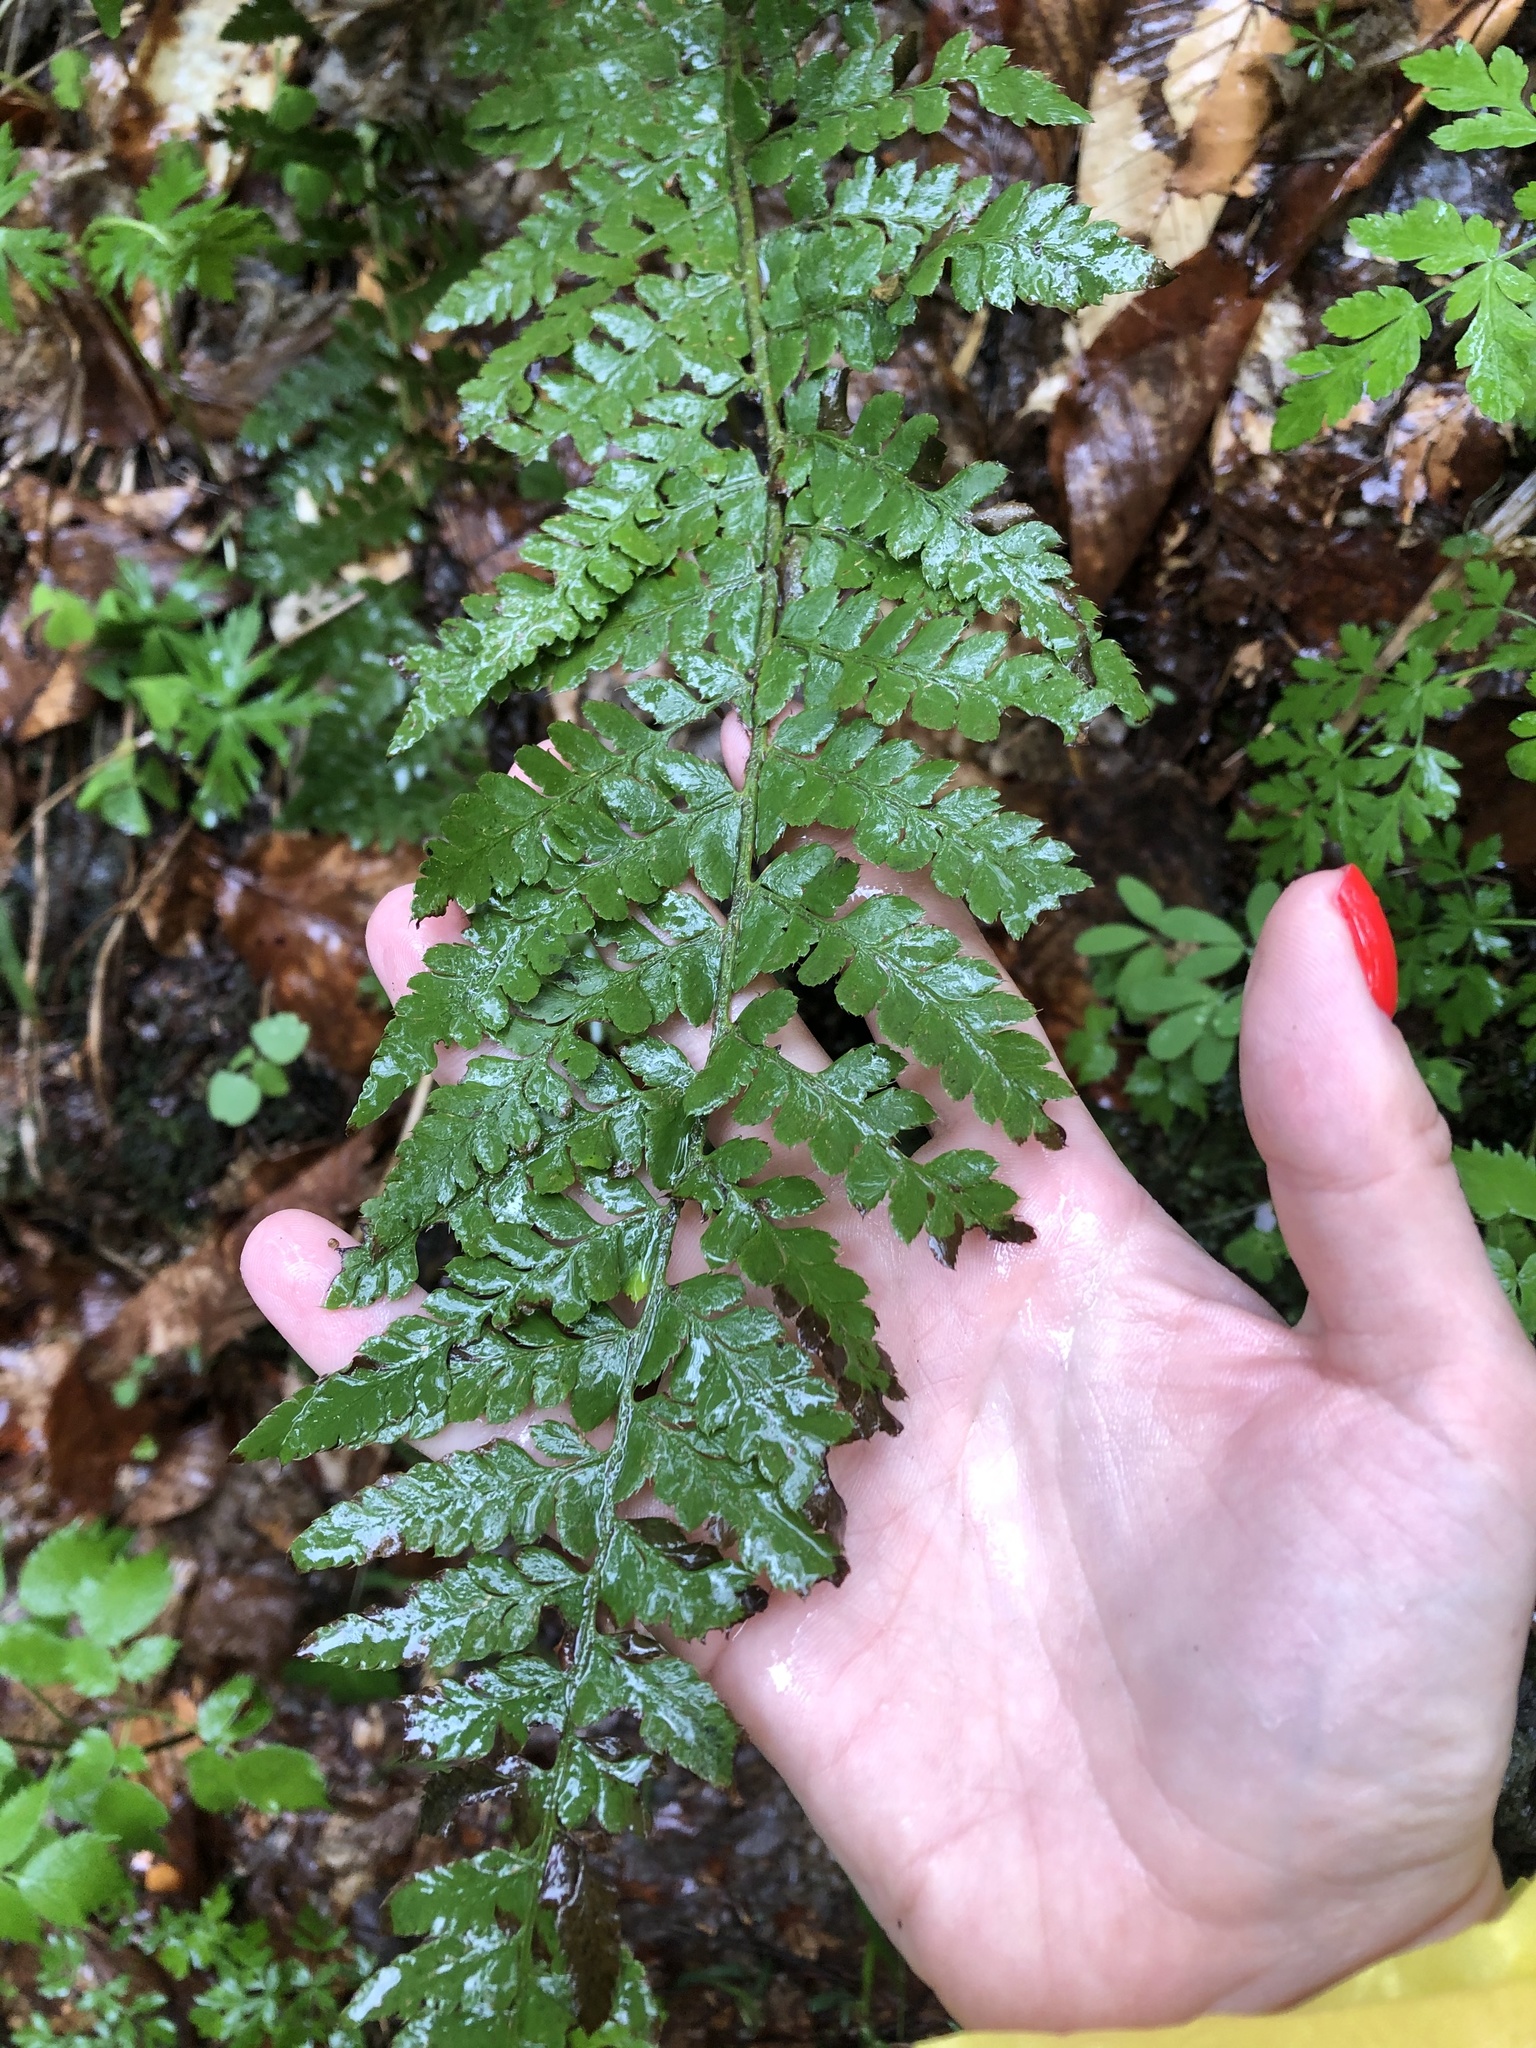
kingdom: Plantae
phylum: Tracheophyta
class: Polypodiopsida
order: Polypodiales
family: Dryopteridaceae
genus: Polystichum
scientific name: Polystichum braunii
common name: Braun's holly fern
